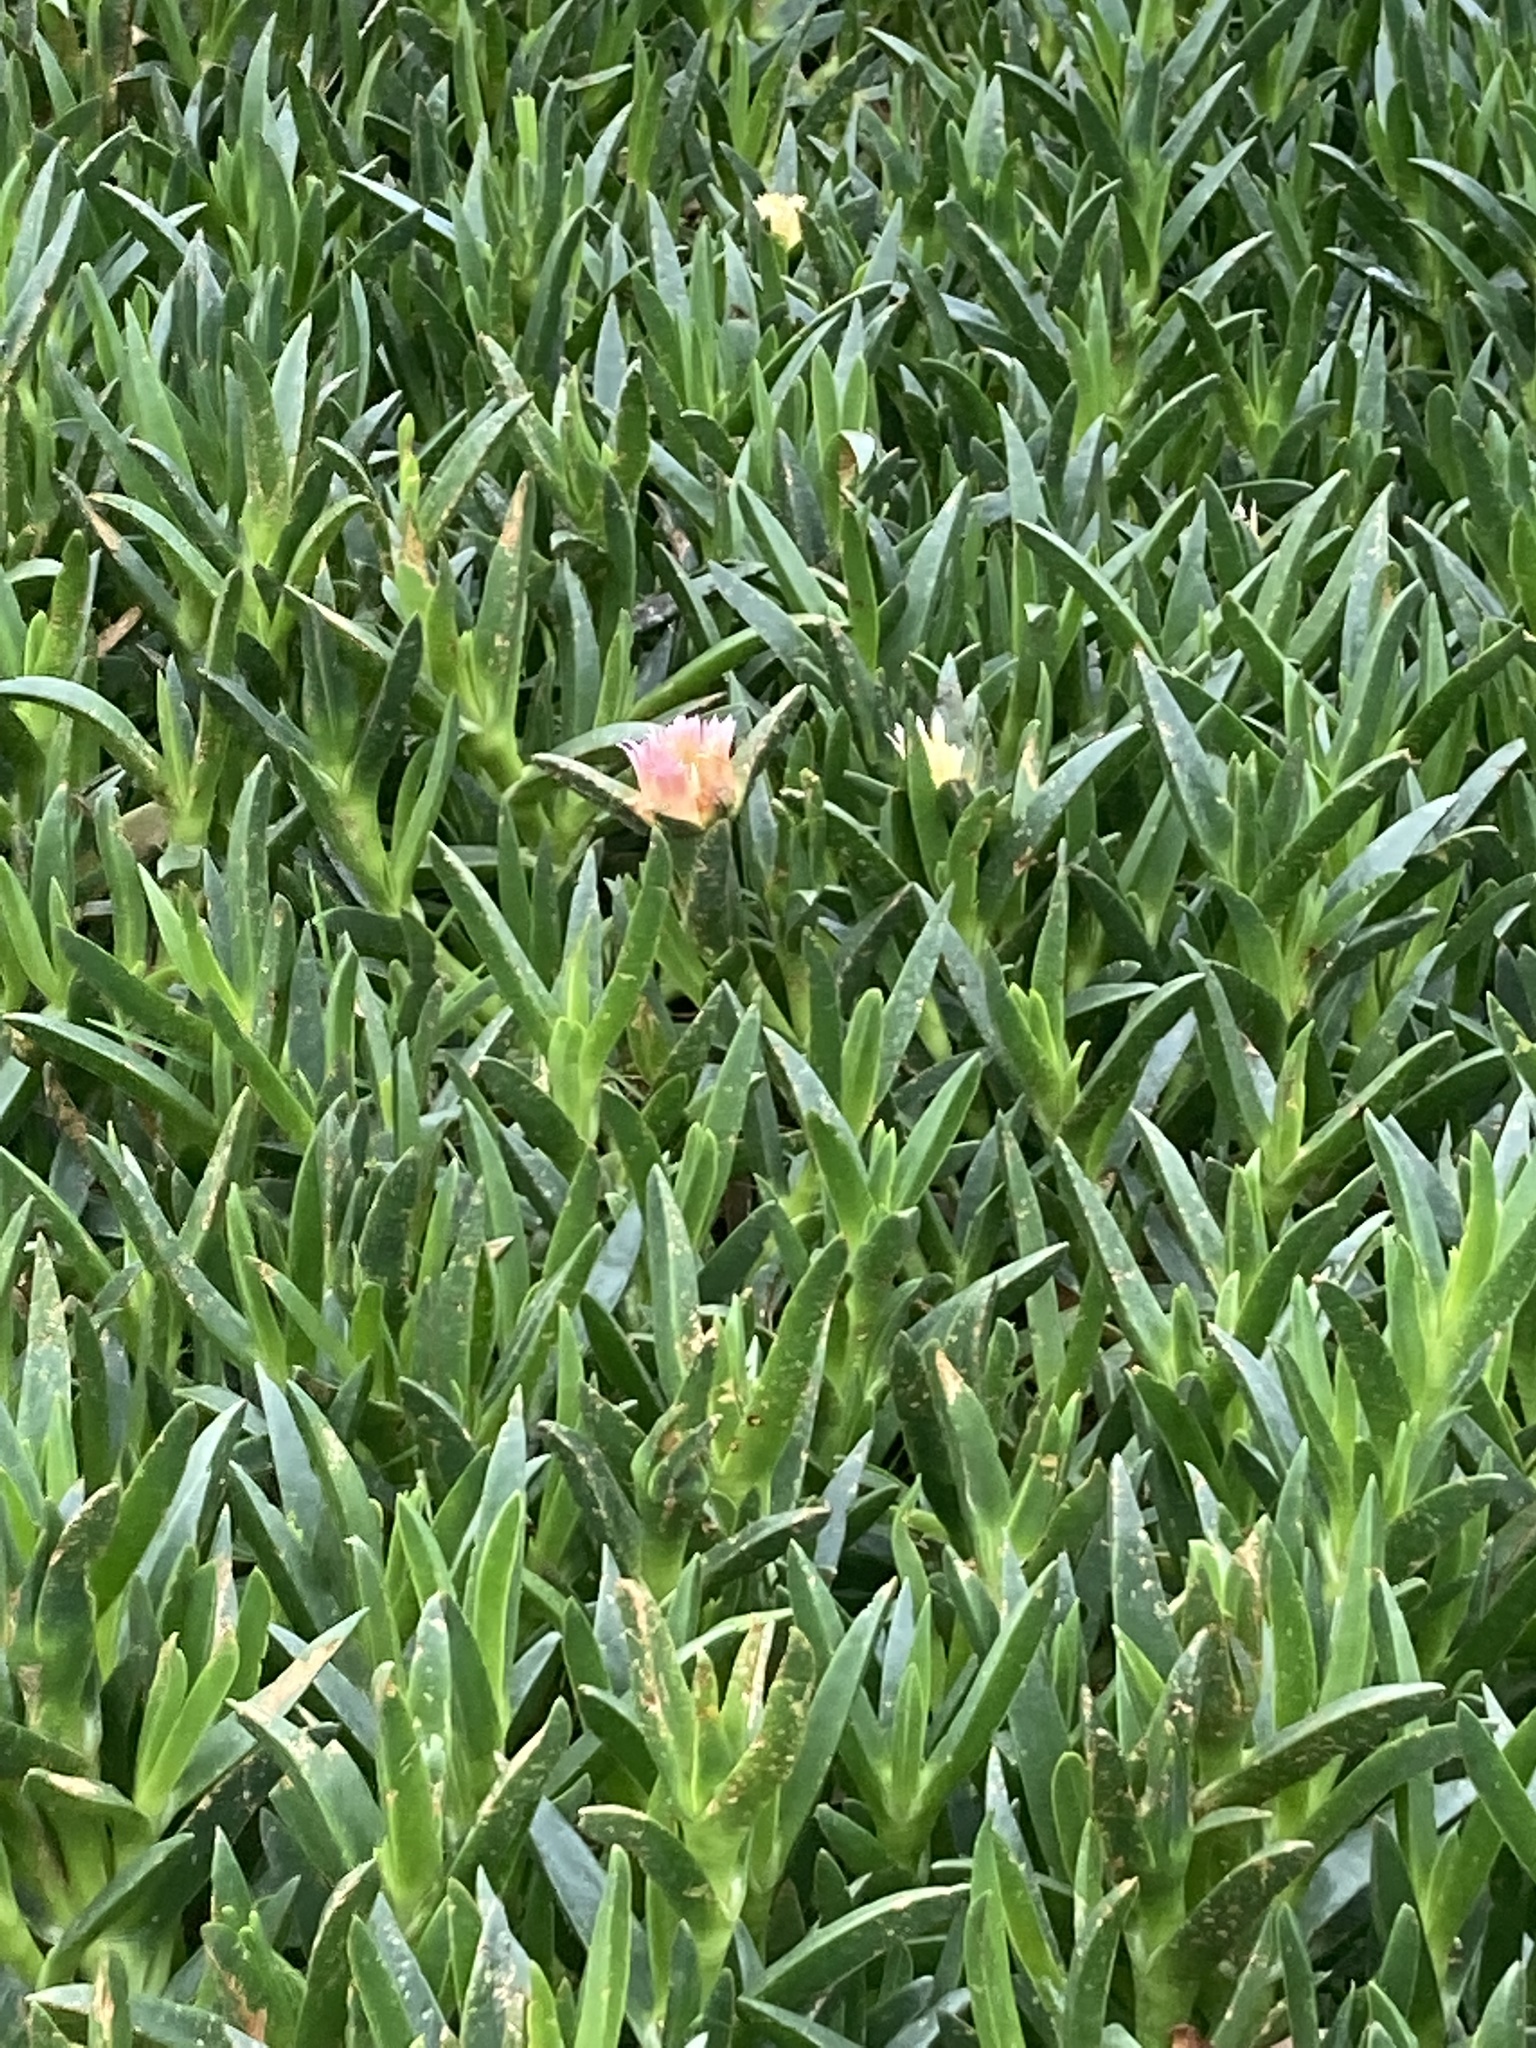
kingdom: Plantae
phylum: Tracheophyta
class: Magnoliopsida
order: Caryophyllales
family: Aizoaceae
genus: Carpobrotus
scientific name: Carpobrotus edulis
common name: Hottentot-fig
